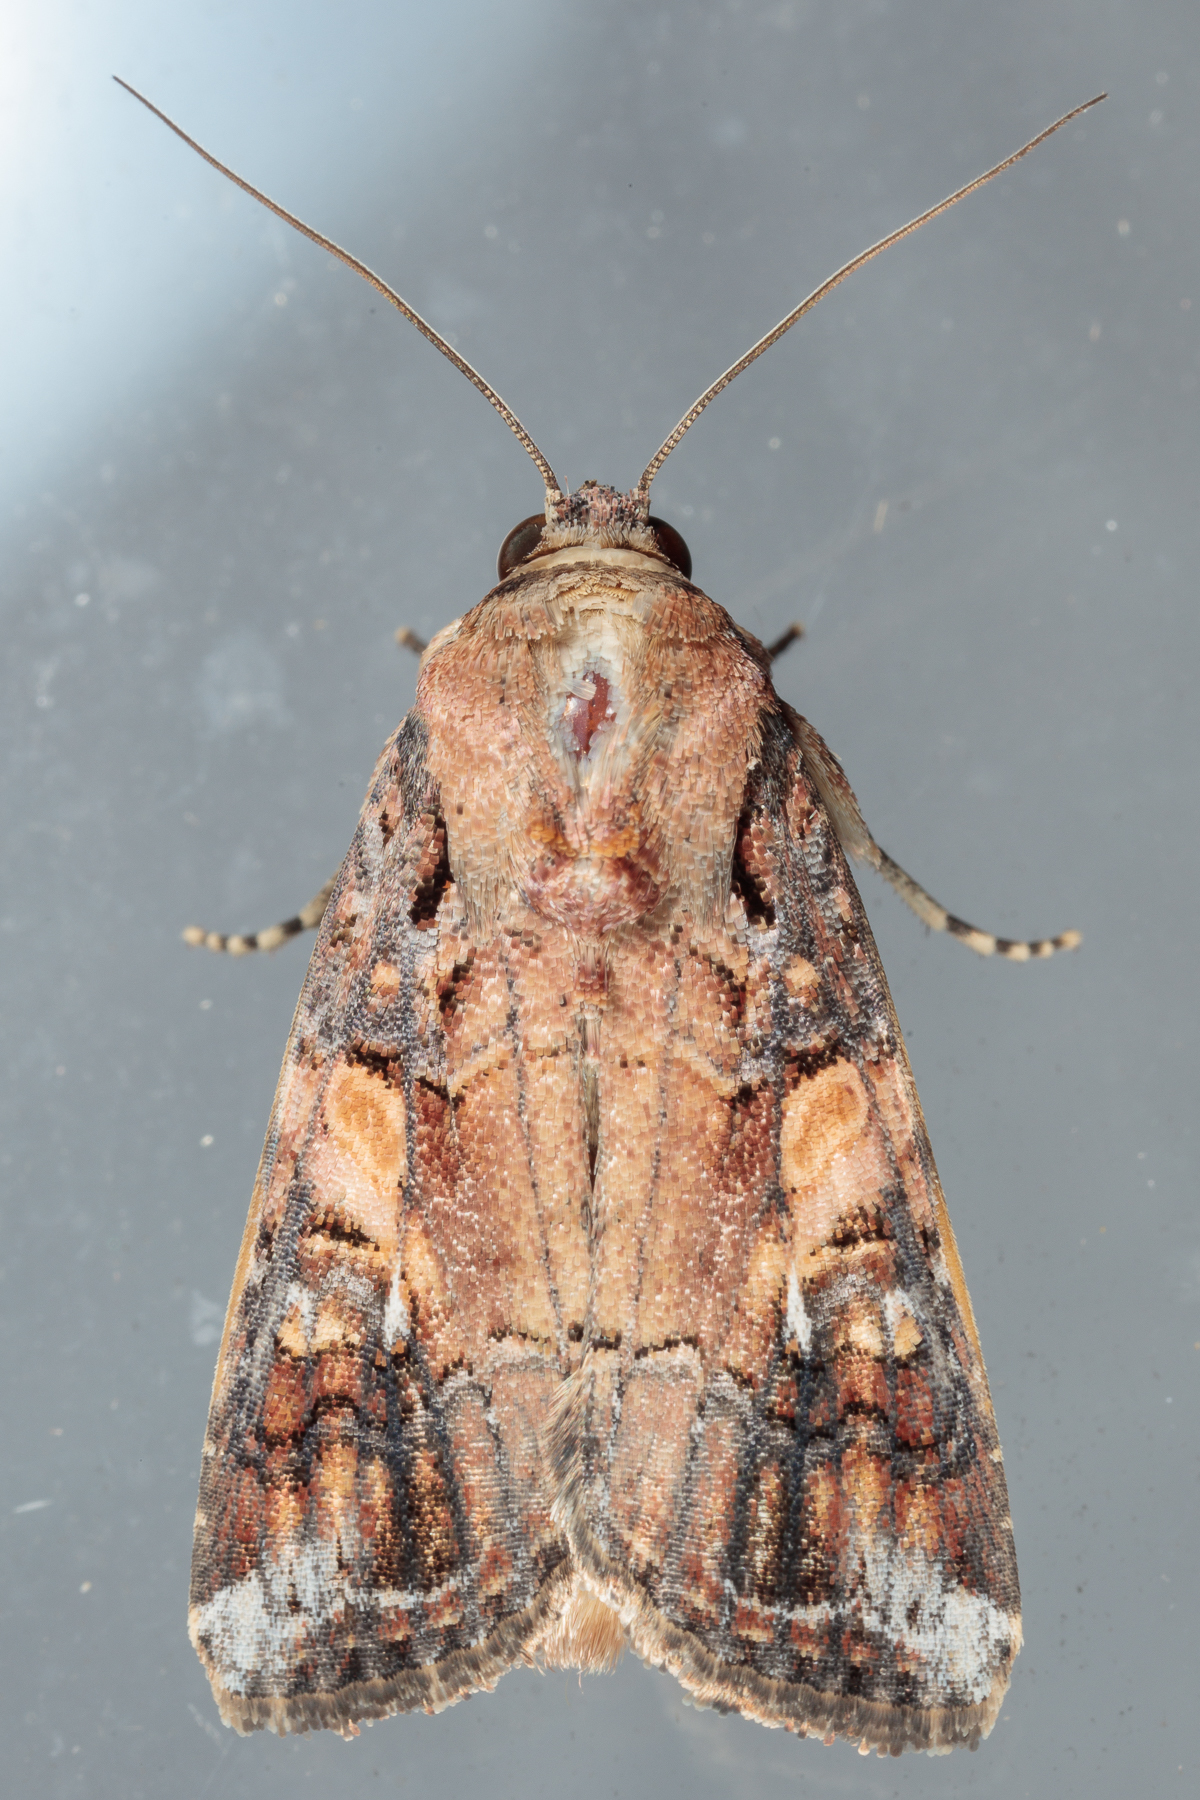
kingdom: Animalia
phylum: Arthropoda
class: Insecta
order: Lepidoptera
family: Noctuidae
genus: Spodoptera
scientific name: Spodoptera frugiperda
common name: Fall armyworm
